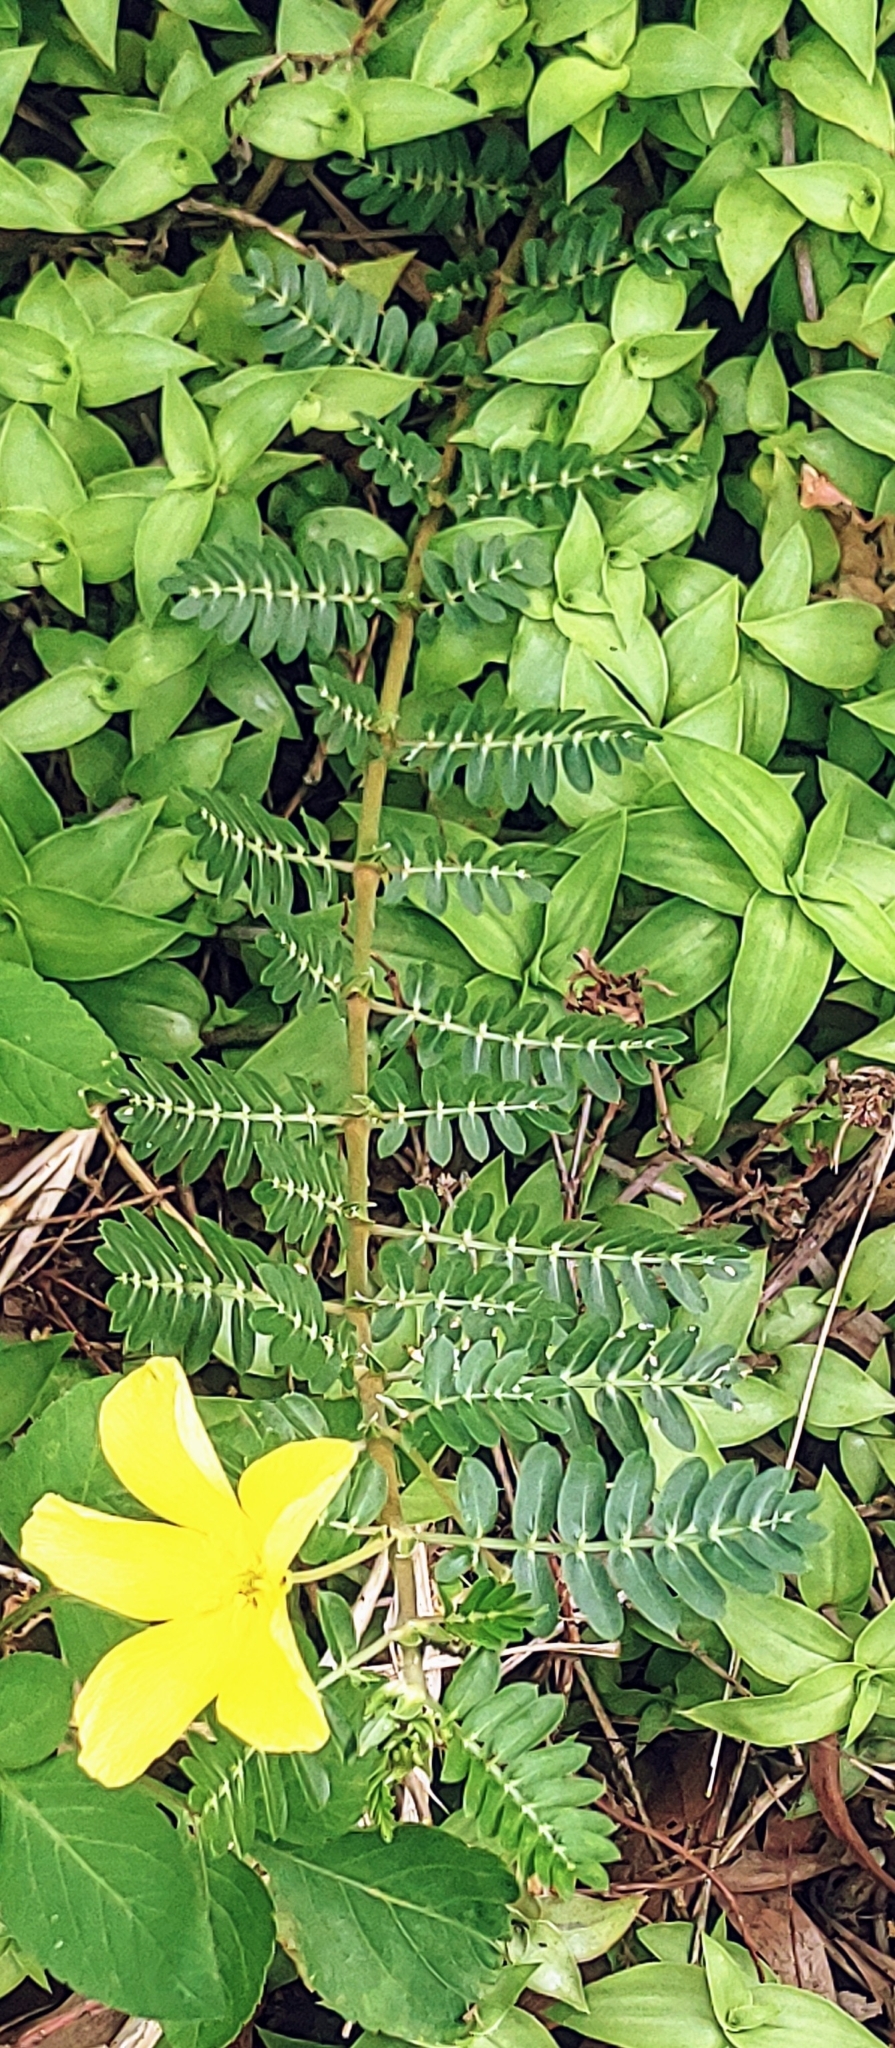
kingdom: Plantae
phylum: Tracheophyta
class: Magnoliopsida
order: Zygophyllales
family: Zygophyllaceae
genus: Tribulus
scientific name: Tribulus cistoides
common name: Jamaican feverplant
